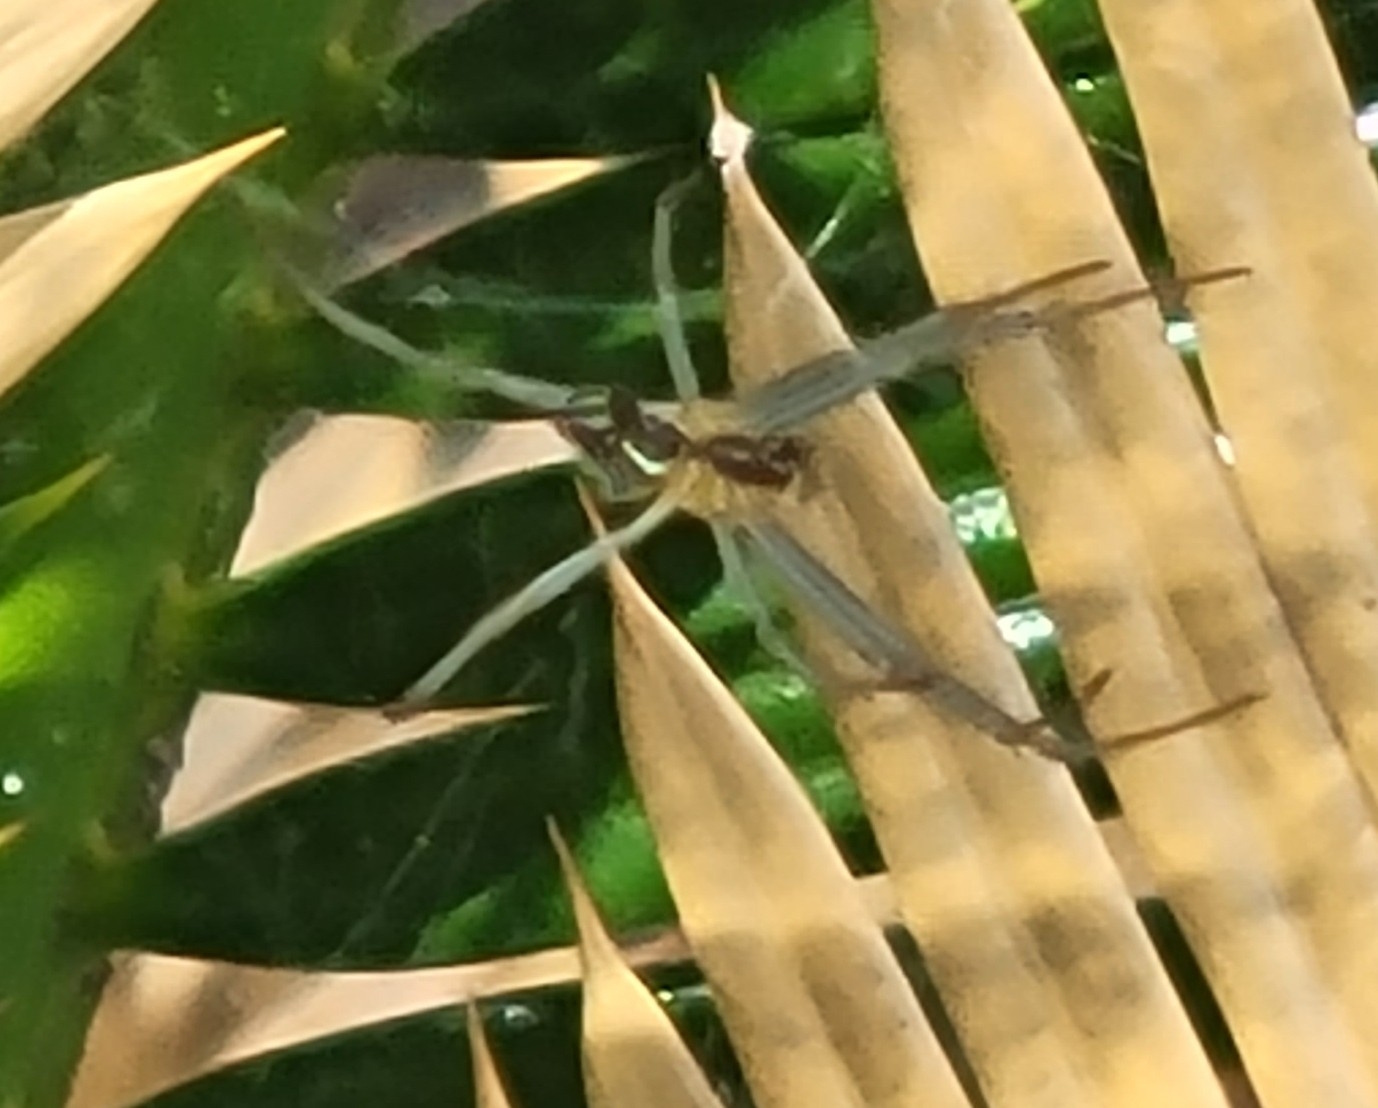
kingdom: Animalia
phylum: Arthropoda
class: Arachnida
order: Araneae
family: Araneidae
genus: Mecynogea
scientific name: Mecynogea lemniscata
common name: Orb weavers
